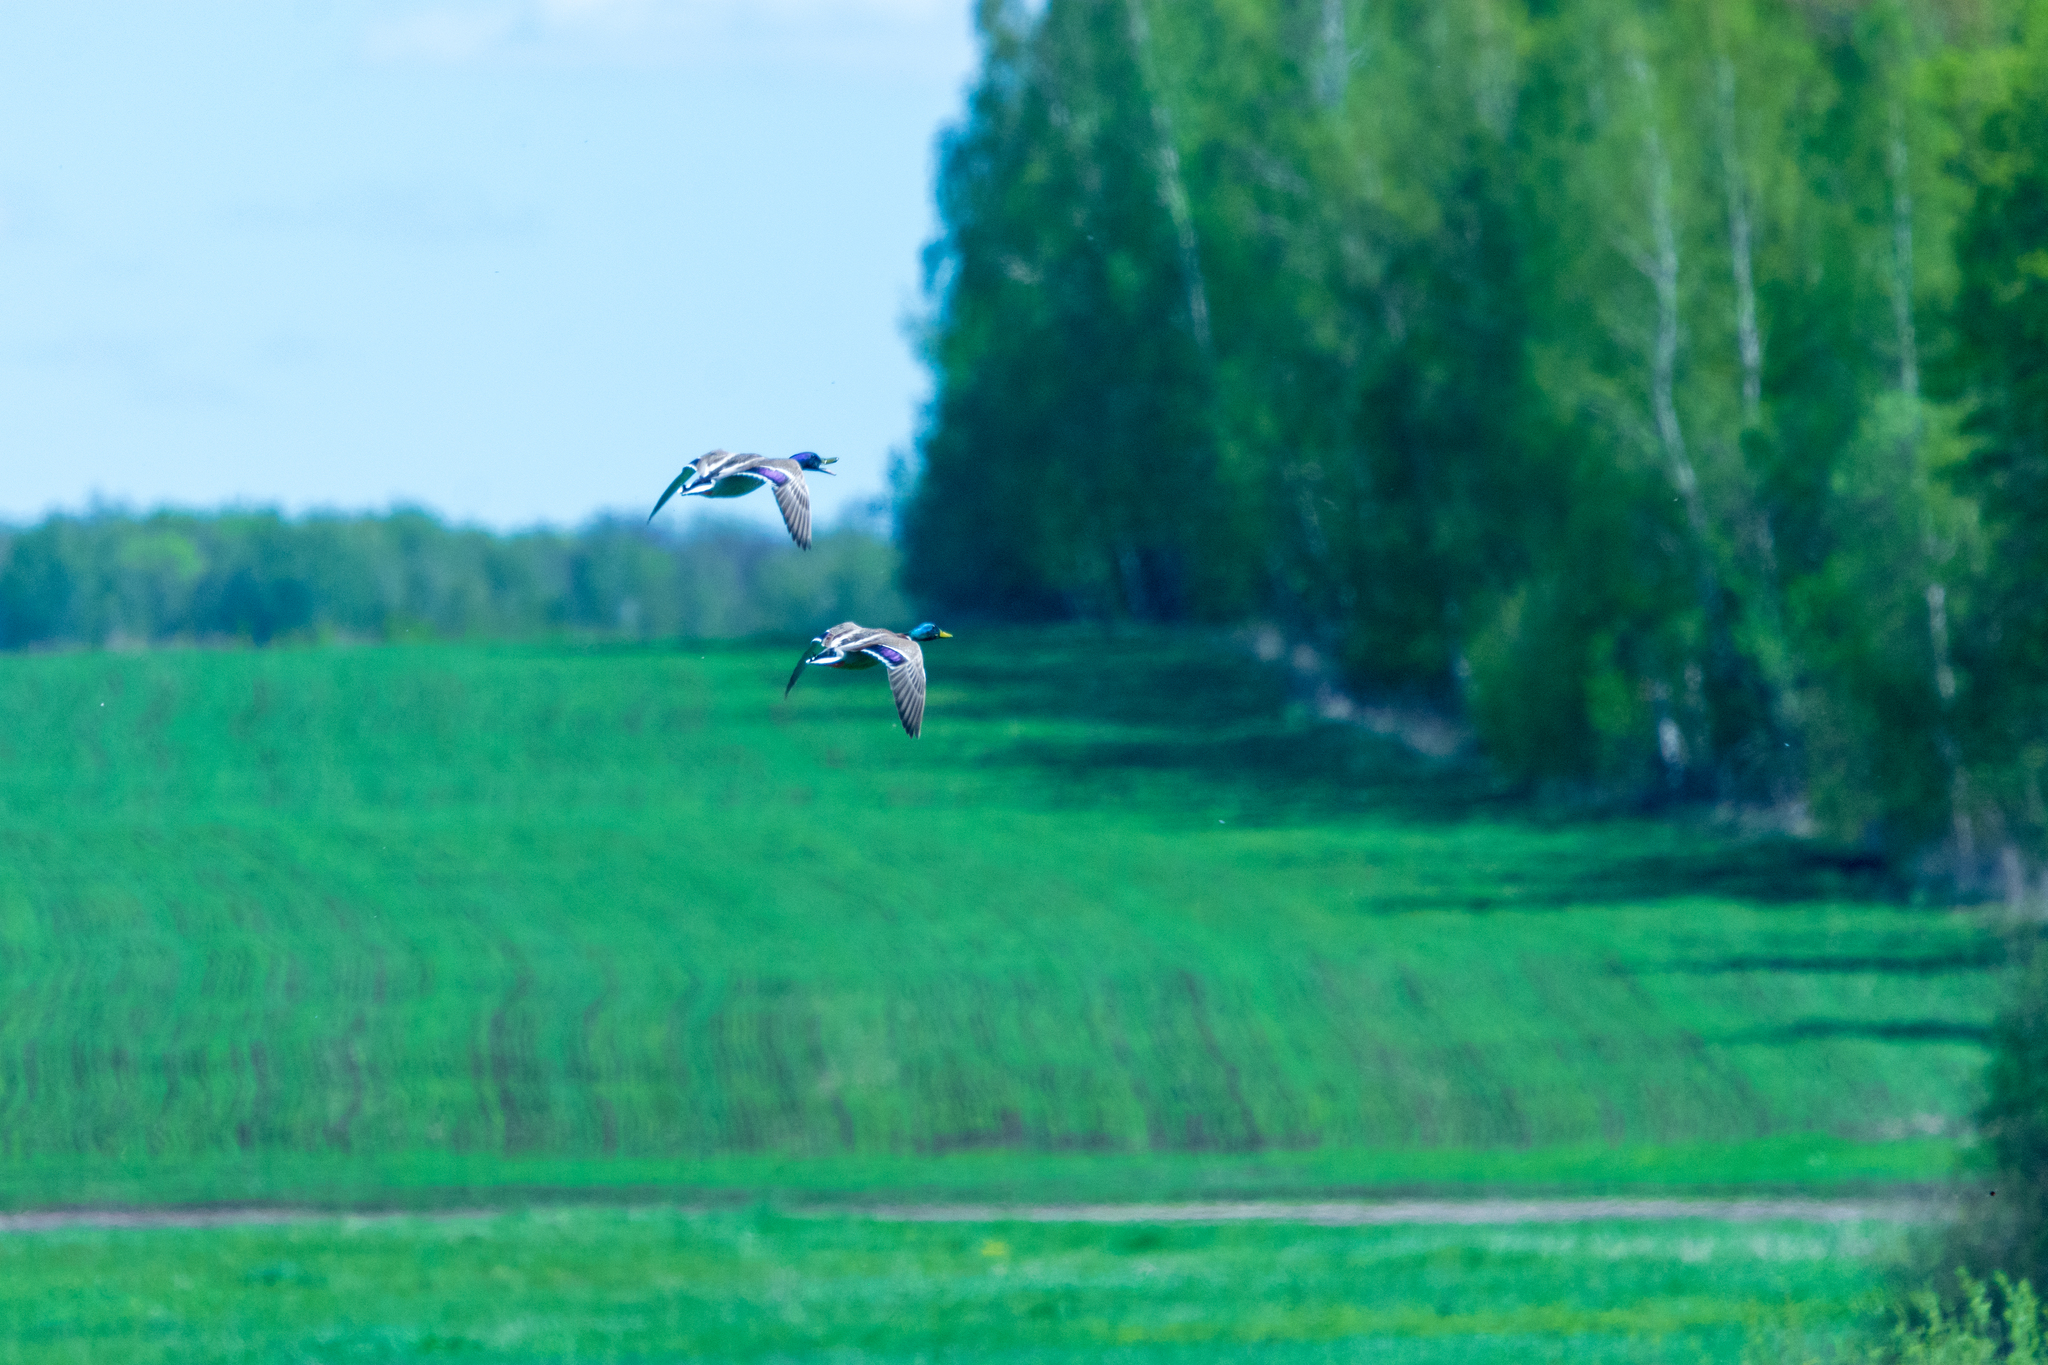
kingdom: Animalia
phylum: Chordata
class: Aves
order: Anseriformes
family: Anatidae
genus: Anas
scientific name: Anas platyrhynchos
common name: Mallard
